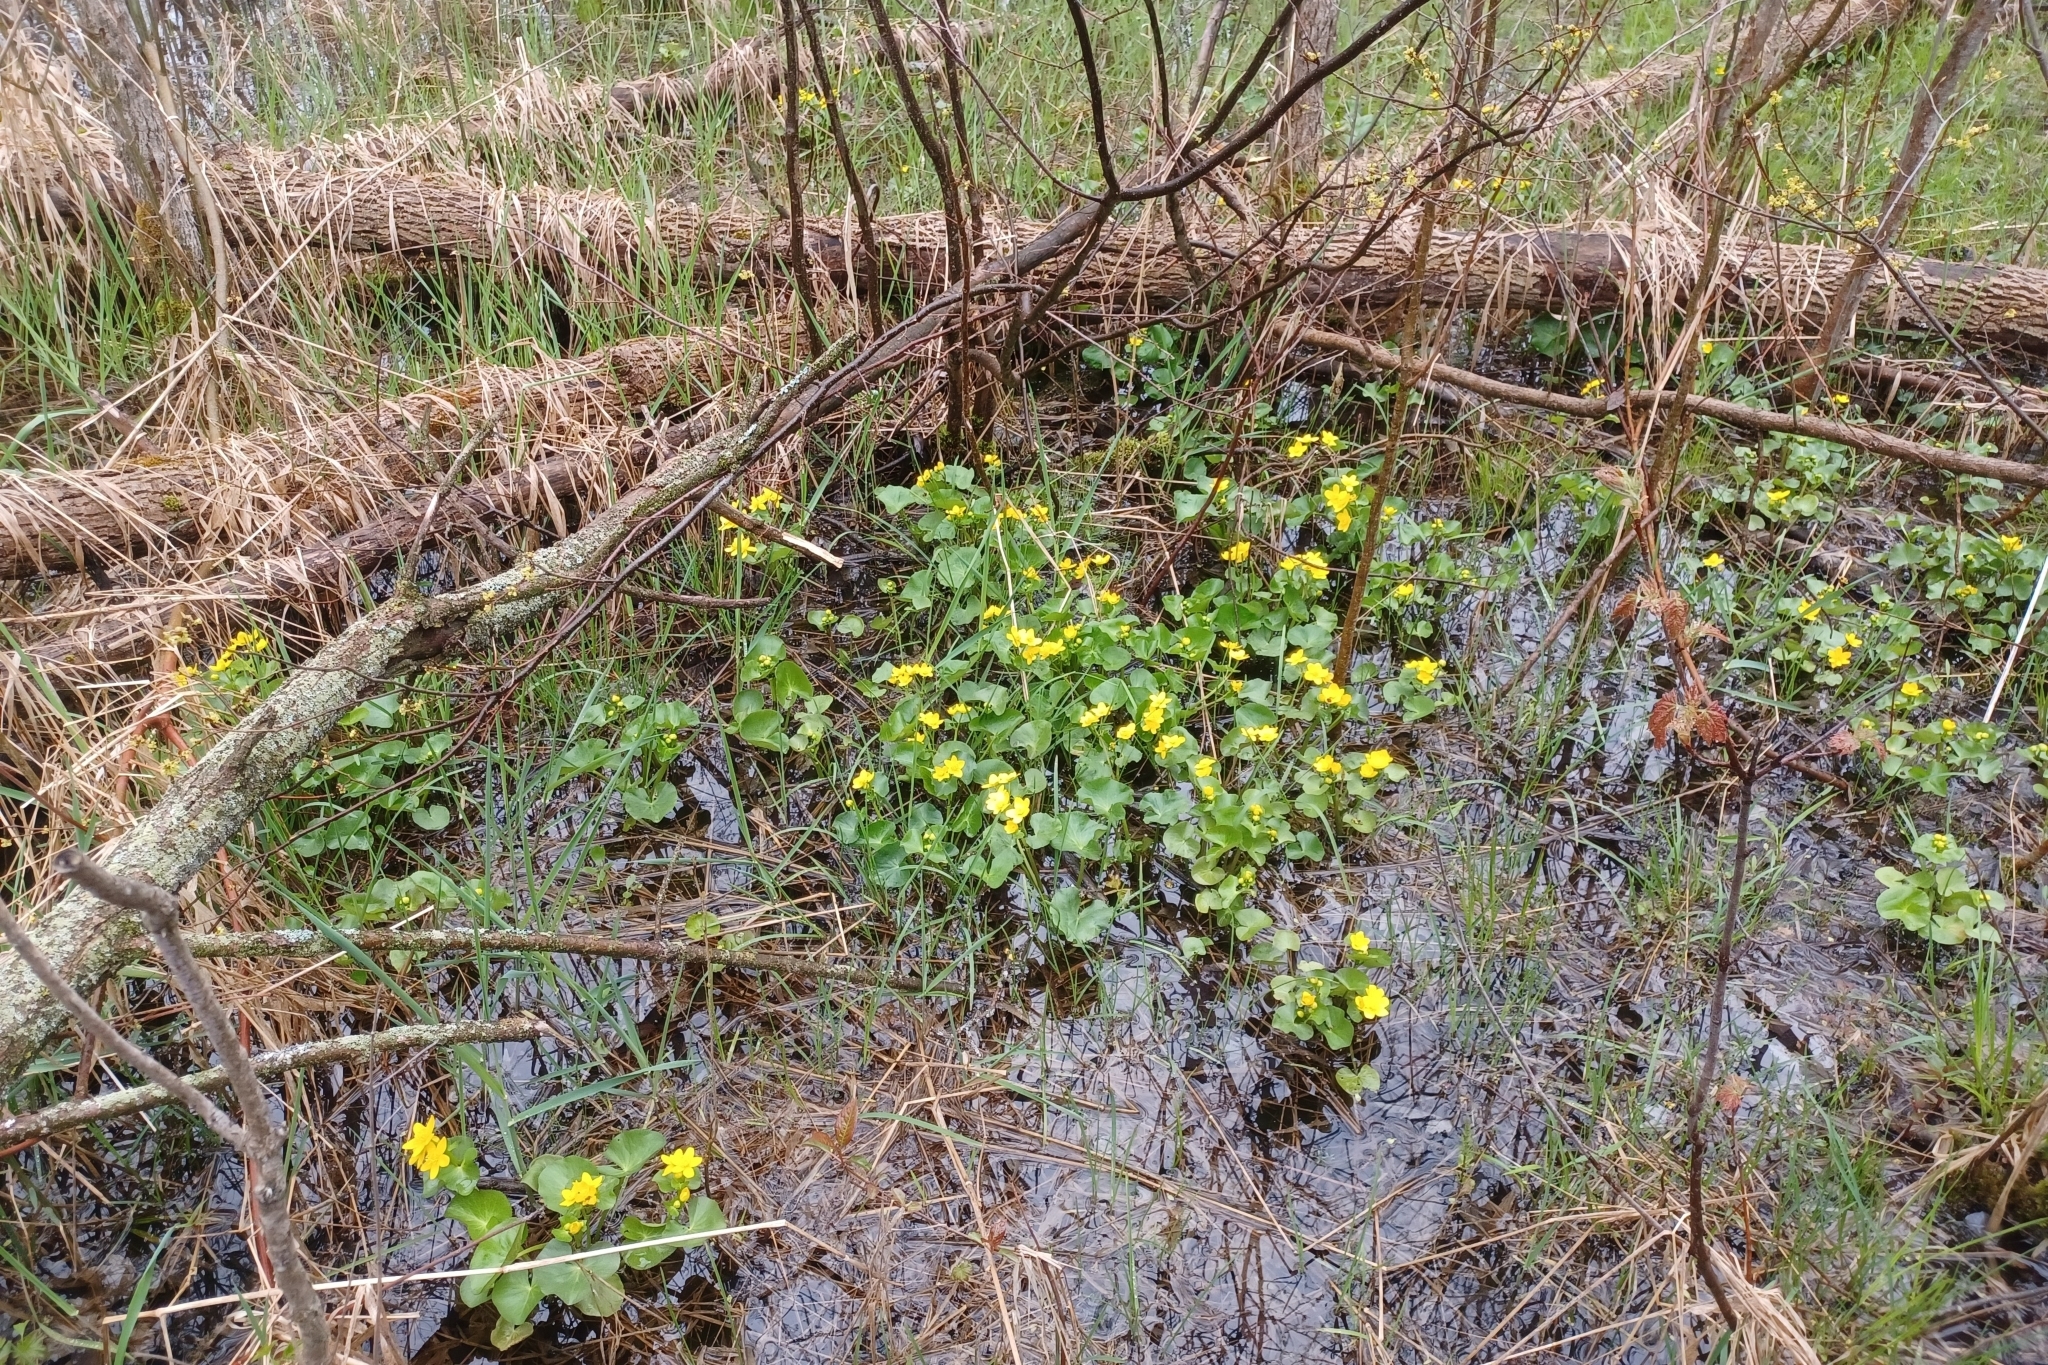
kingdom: Plantae
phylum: Tracheophyta
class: Magnoliopsida
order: Ranunculales
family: Ranunculaceae
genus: Caltha
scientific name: Caltha palustris
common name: Marsh marigold
